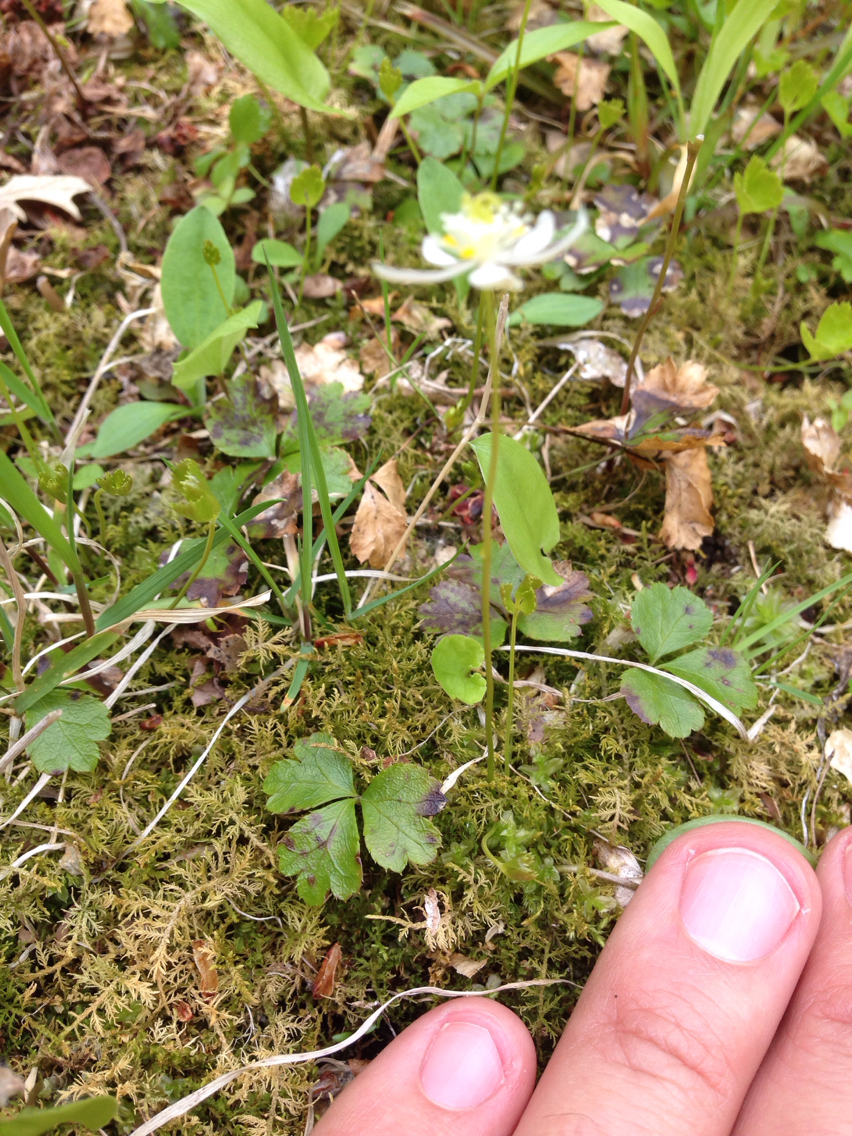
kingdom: Plantae
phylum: Tracheophyta
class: Magnoliopsida
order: Ranunculales
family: Ranunculaceae
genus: Coptis
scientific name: Coptis trifolia
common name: Canker-root
